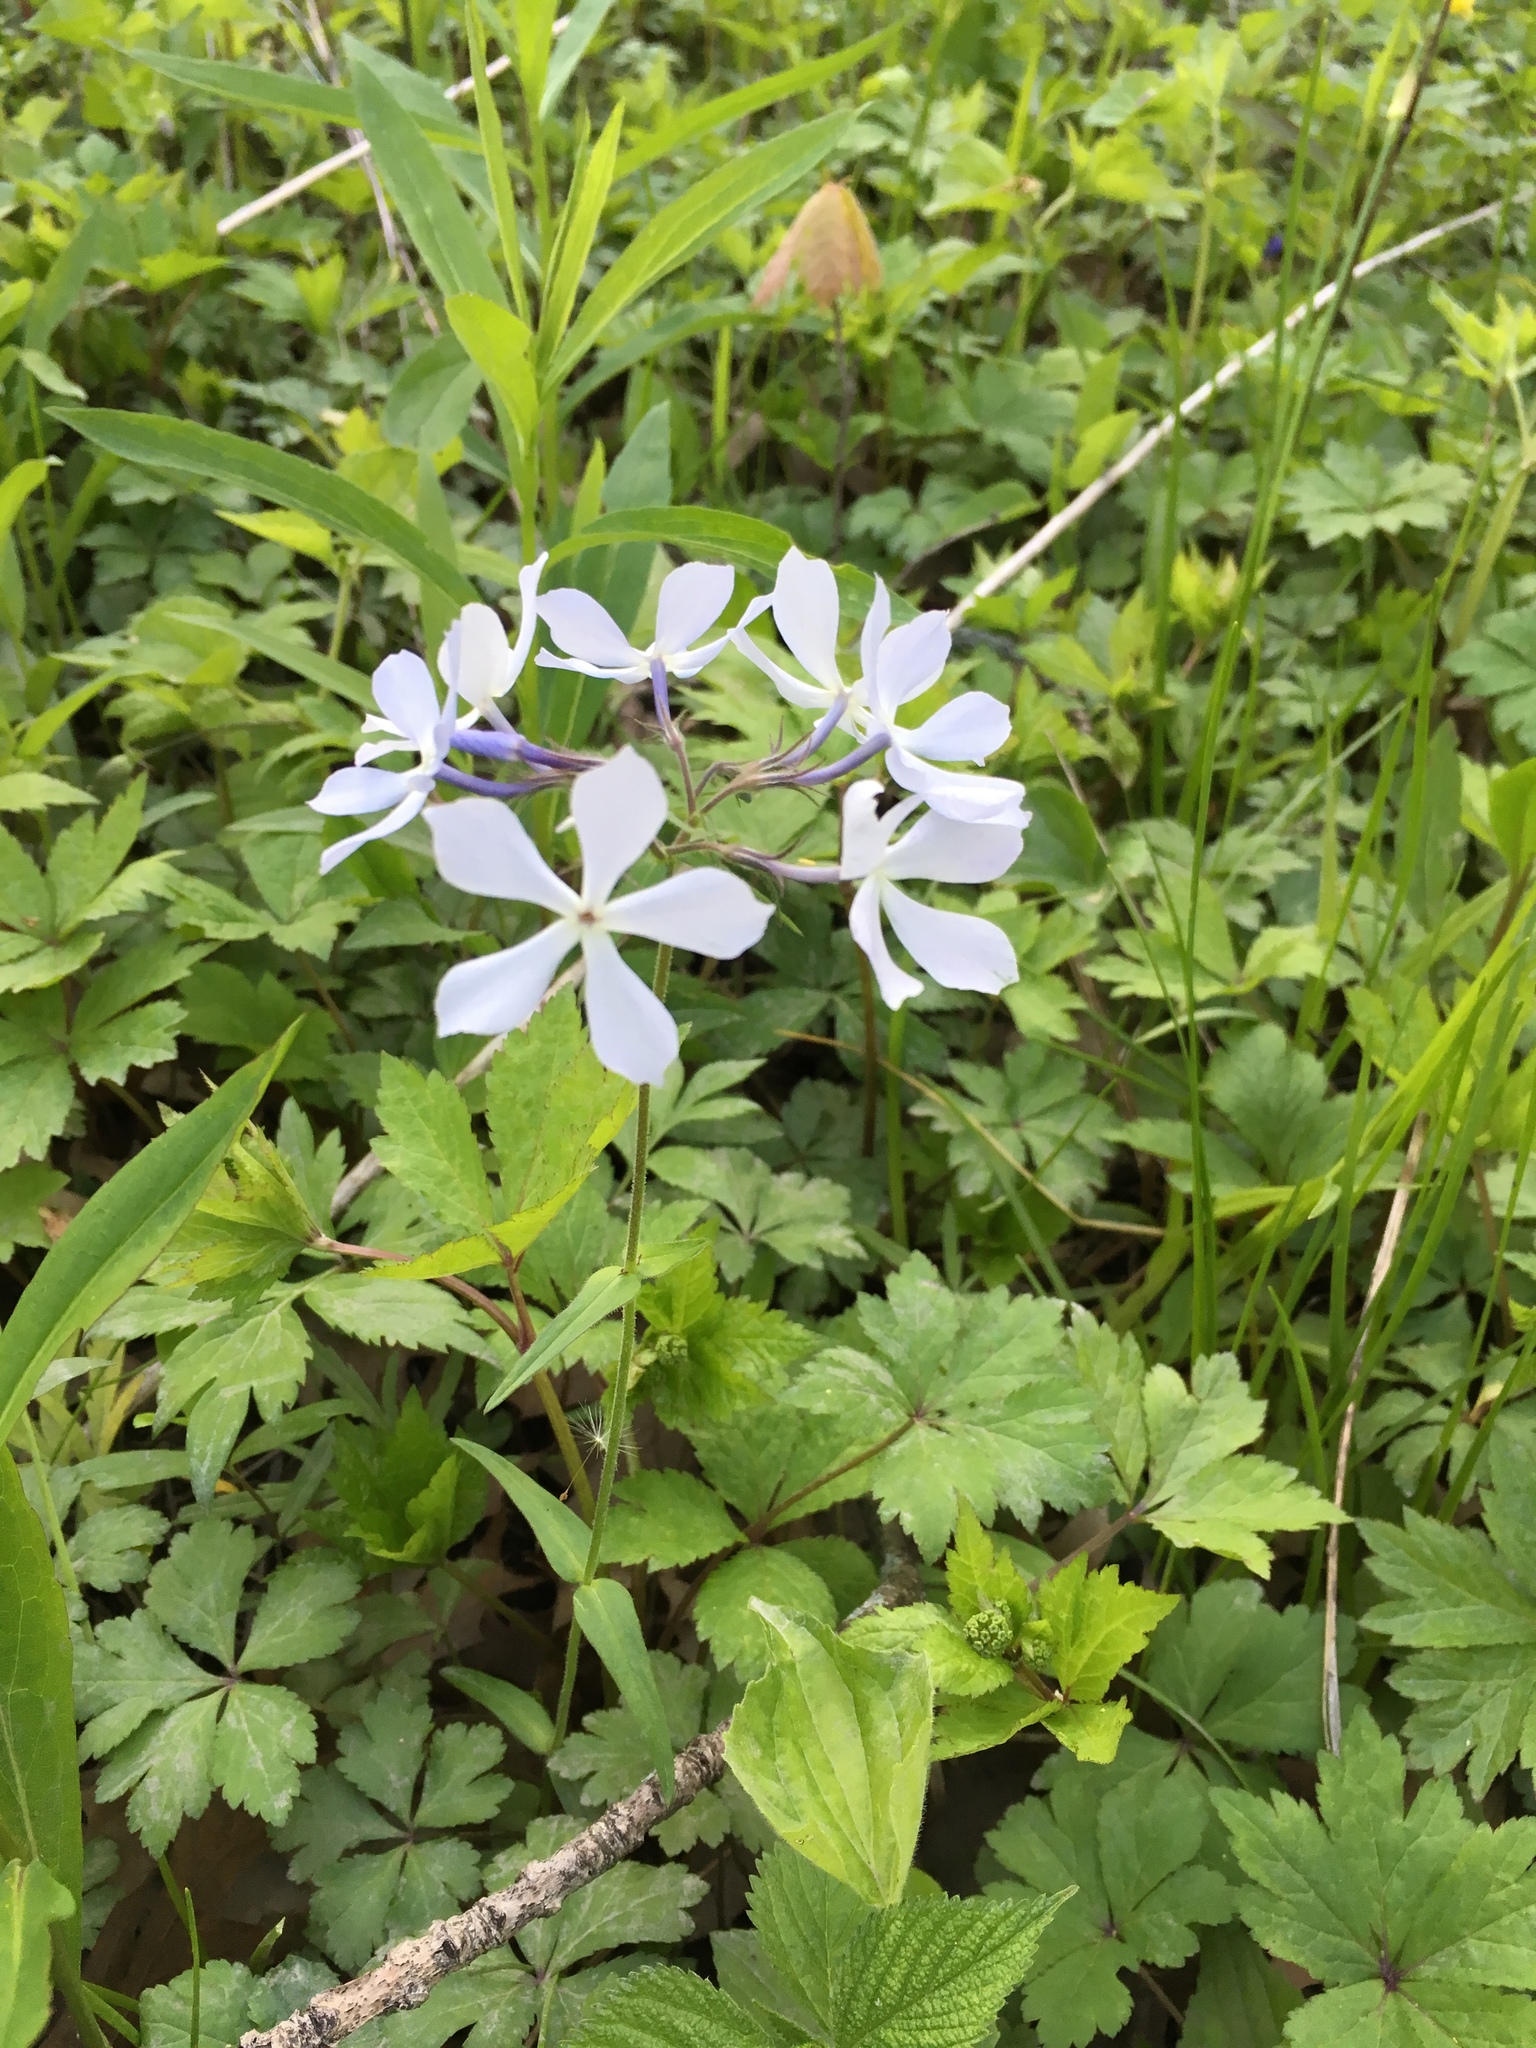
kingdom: Plantae
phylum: Tracheophyta
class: Magnoliopsida
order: Ericales
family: Polemoniaceae
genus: Phlox
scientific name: Phlox divaricata
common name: Blue phlox
